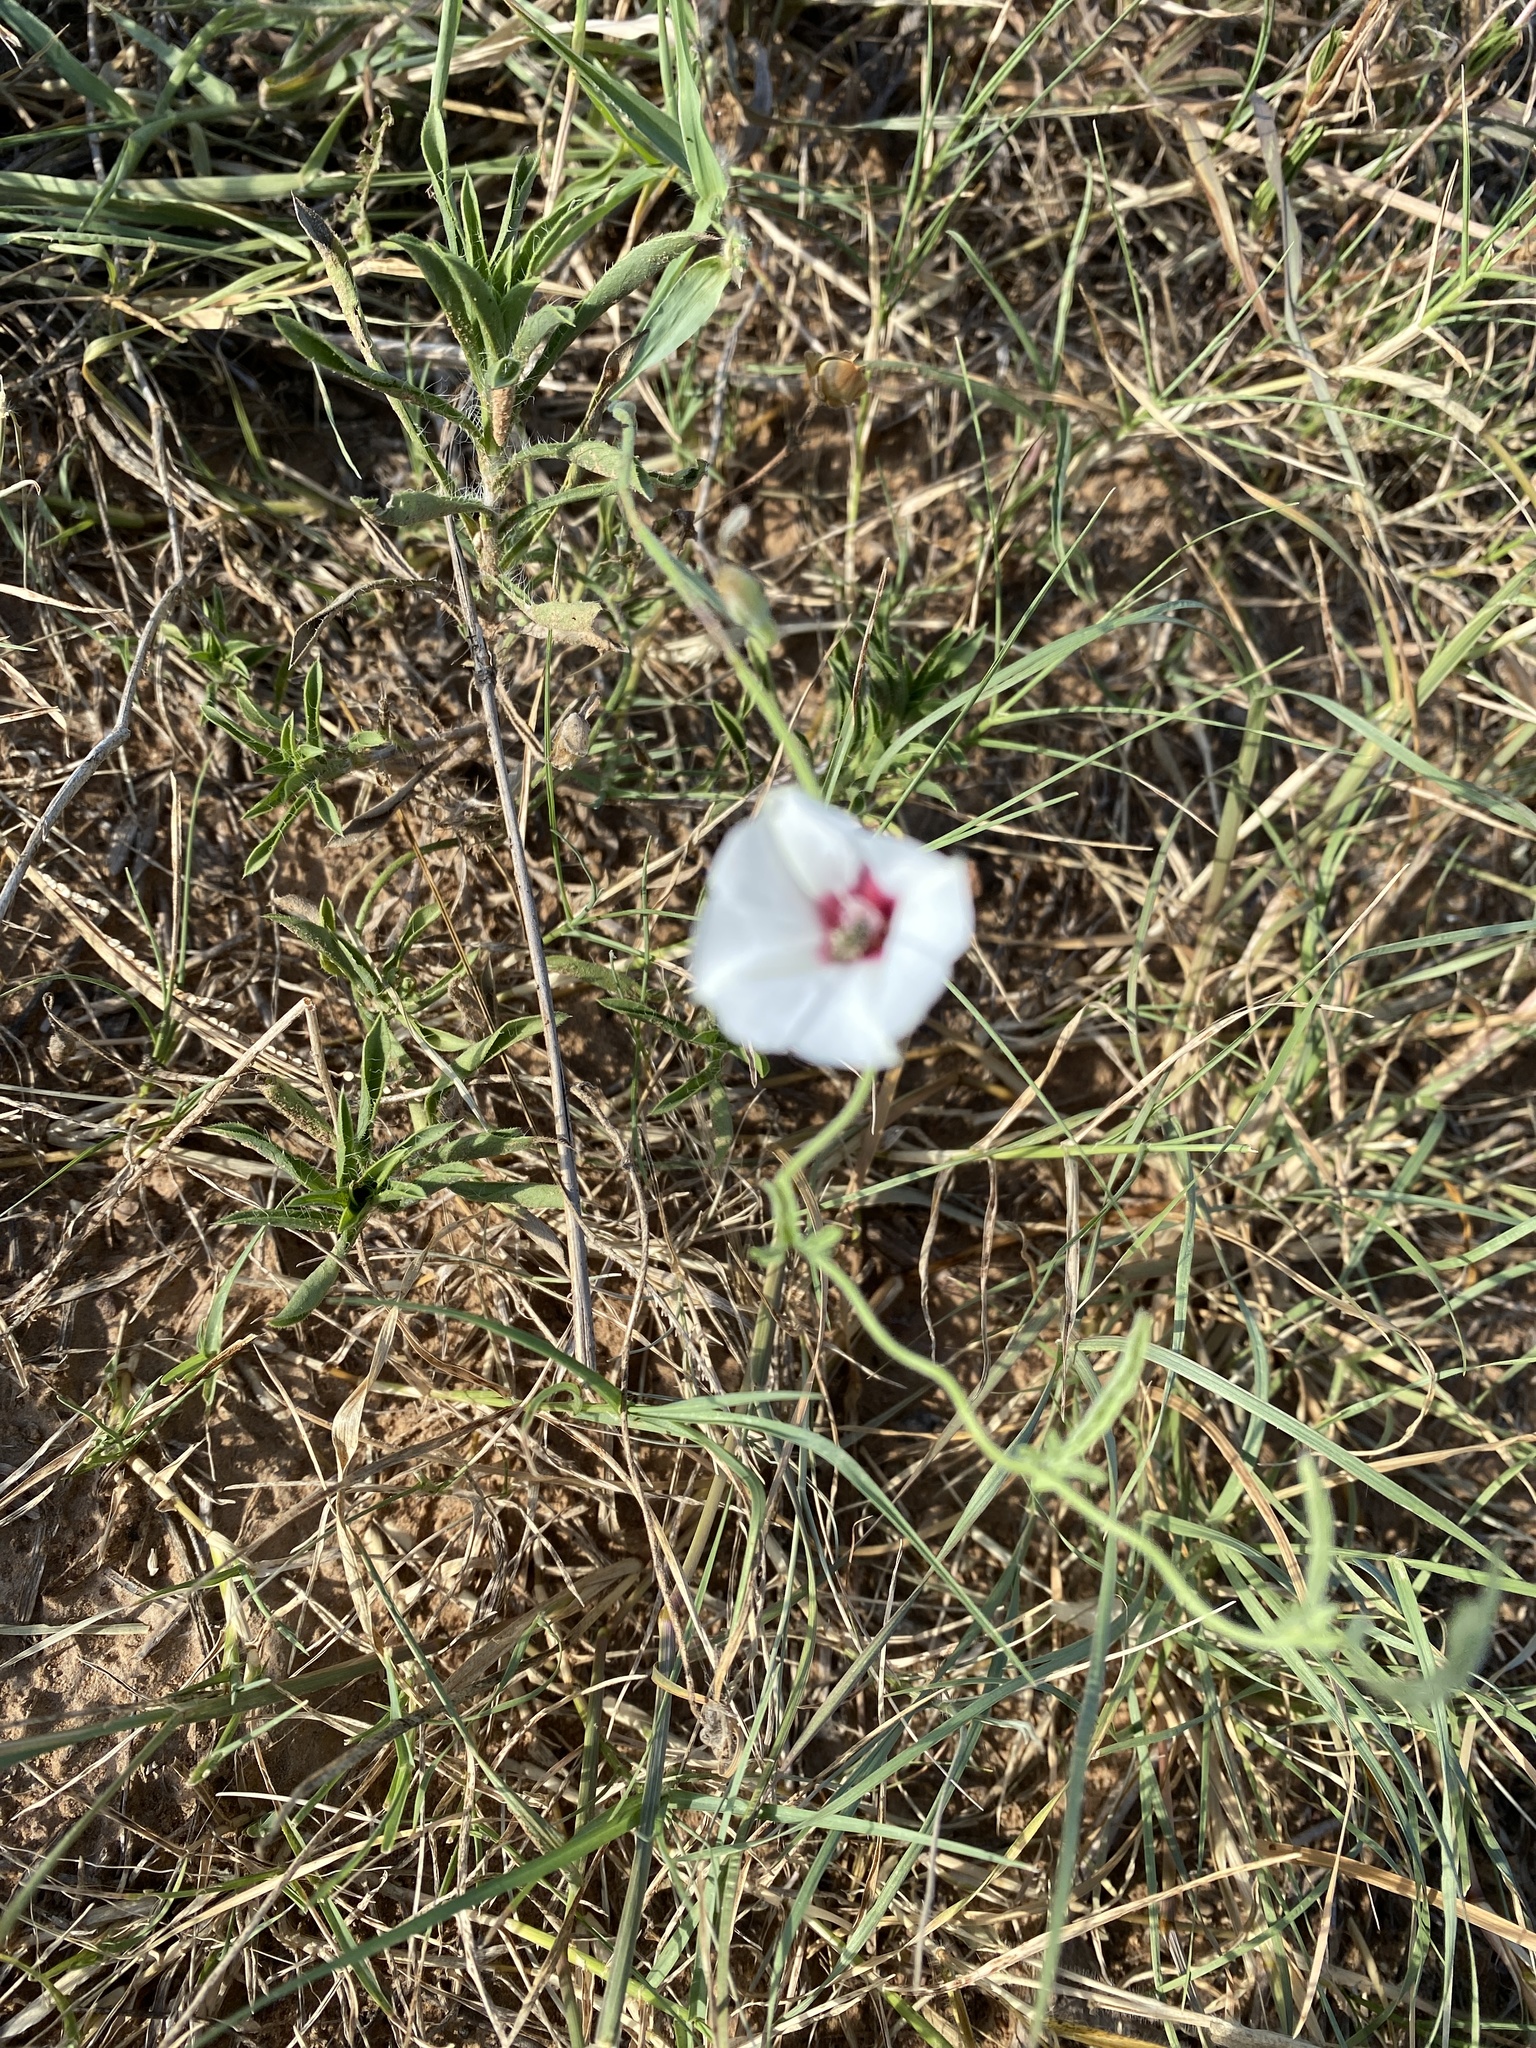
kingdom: Plantae
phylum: Tracheophyta
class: Magnoliopsida
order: Solanales
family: Convolvulaceae
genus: Convolvulus
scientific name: Convolvulus equitans
